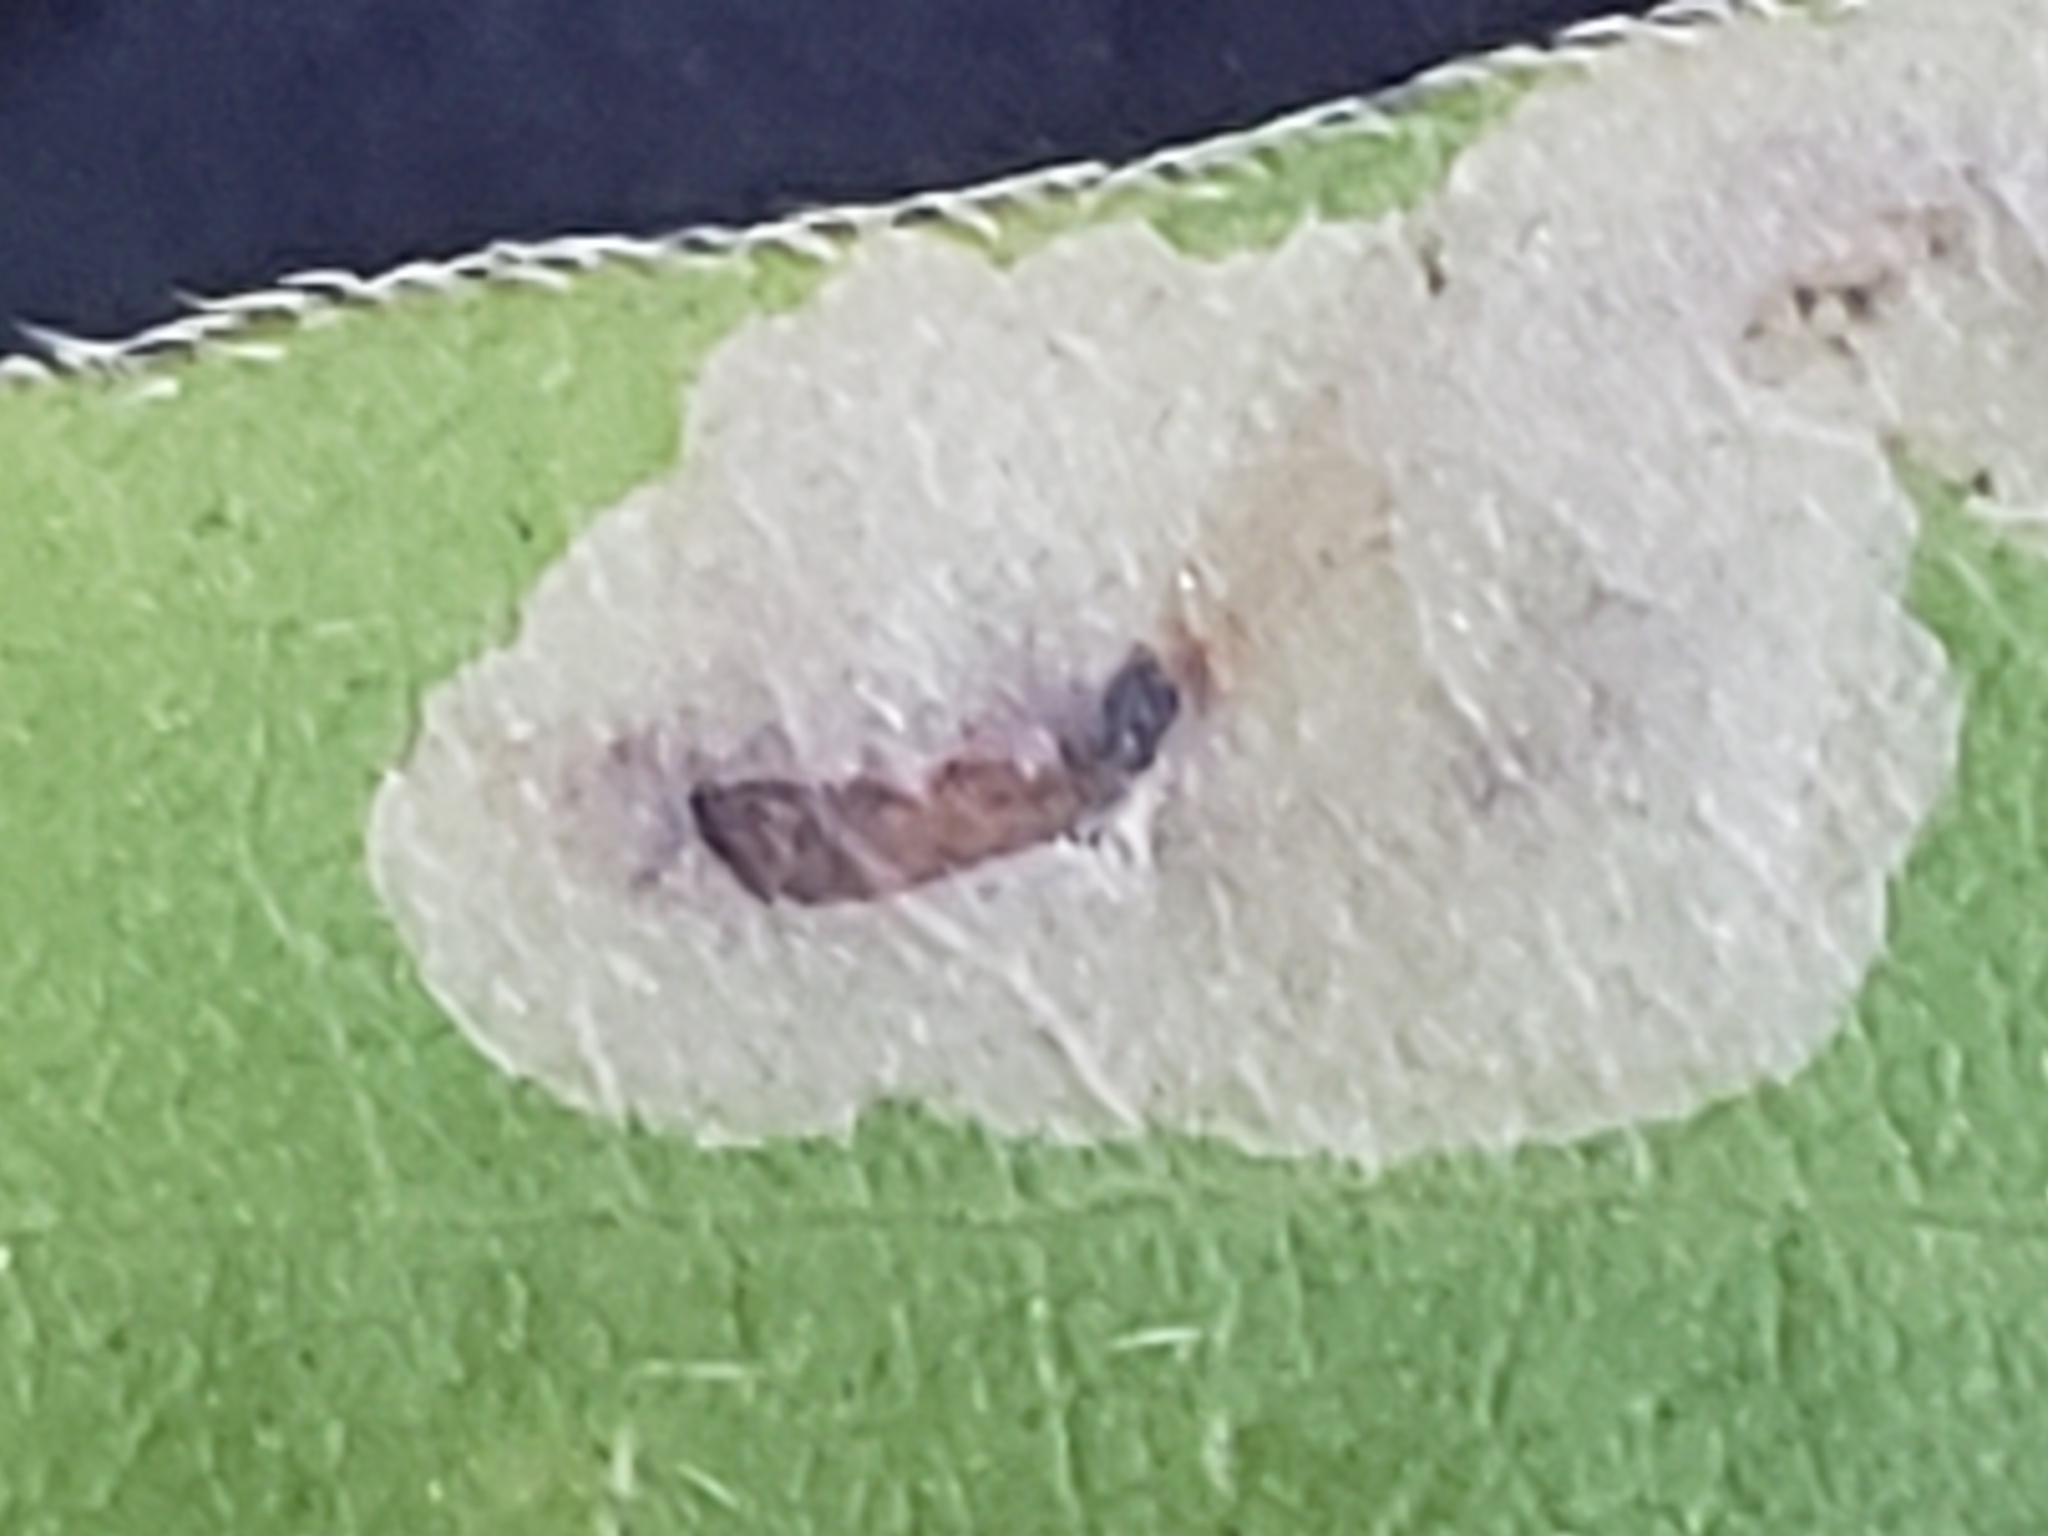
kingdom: Animalia
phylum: Arthropoda
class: Insecta
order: Diptera
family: Agromyzidae
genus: Calycomyza
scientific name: Calycomyza solidaginis
